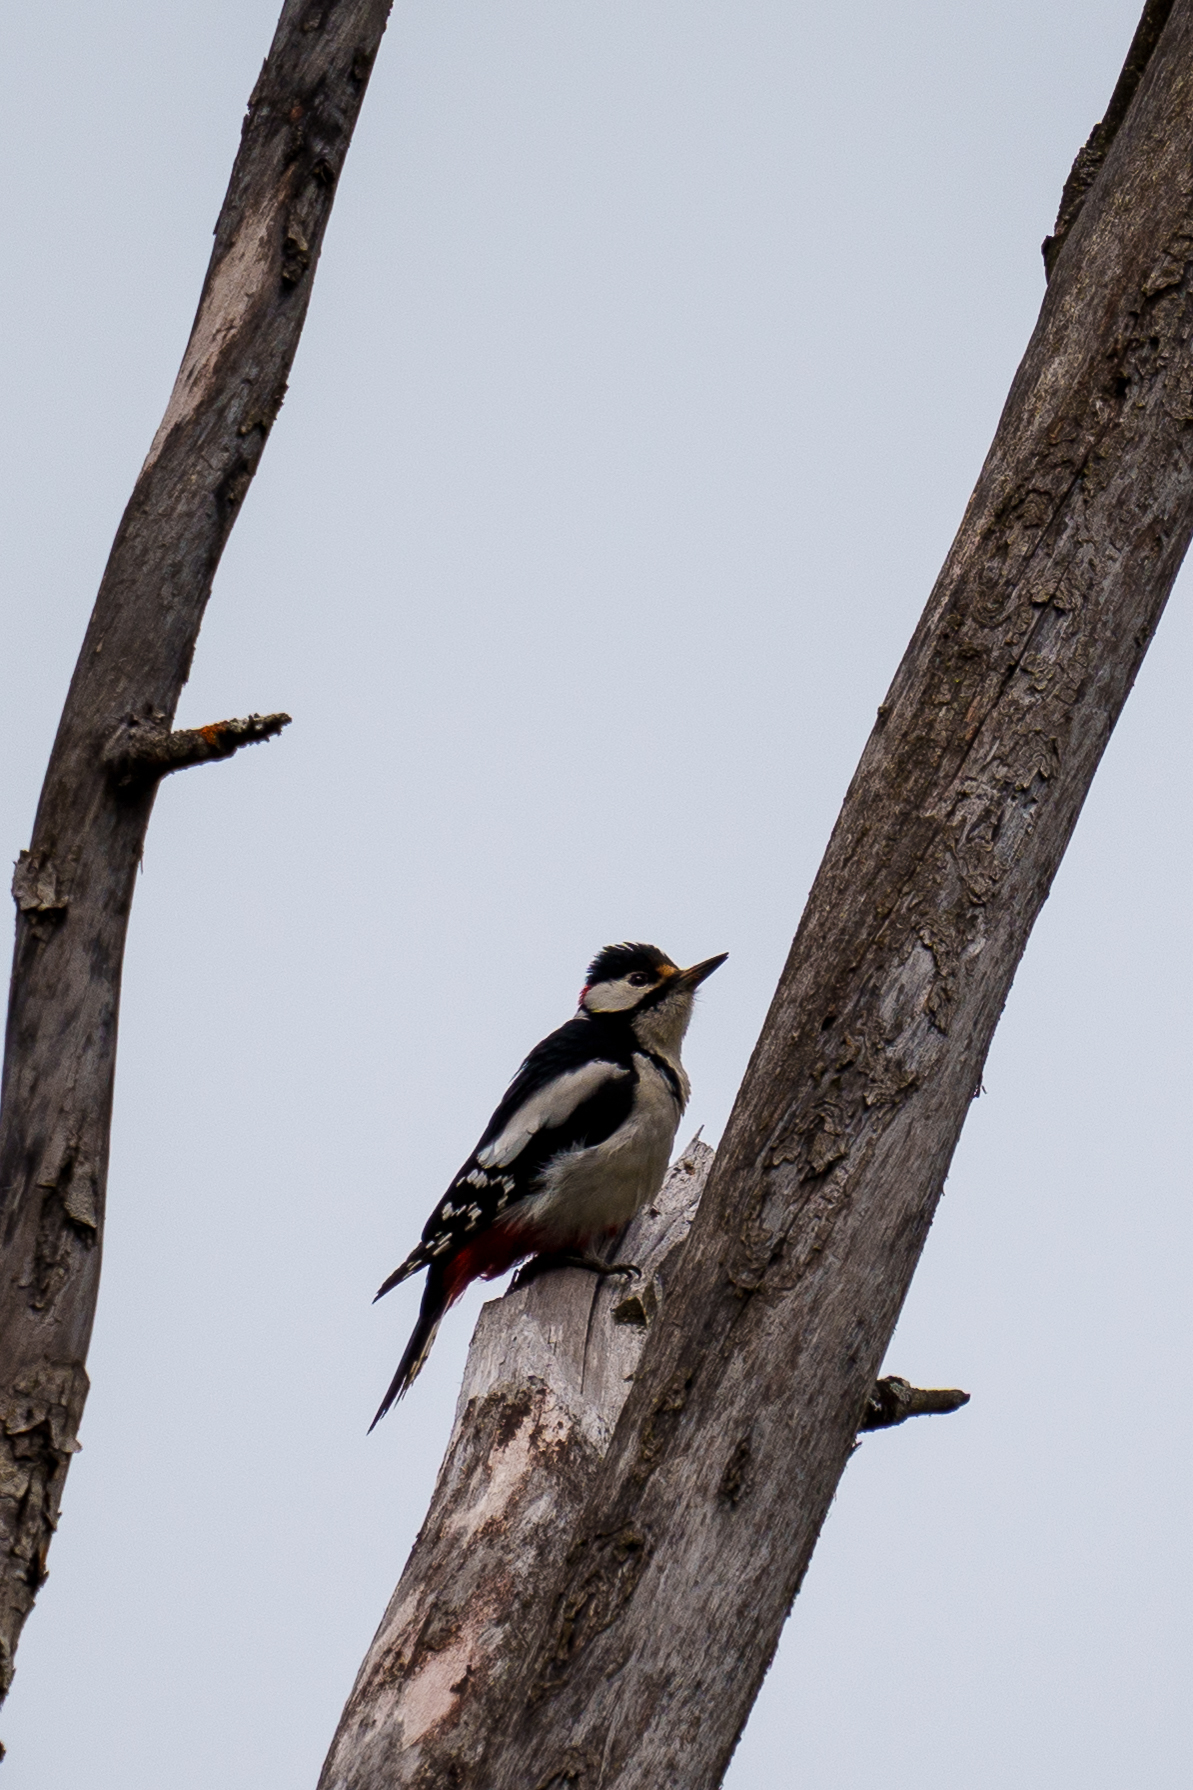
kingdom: Animalia
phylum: Chordata
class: Aves
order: Piciformes
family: Picidae
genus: Dendrocopos
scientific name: Dendrocopos major
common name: Great spotted woodpecker
